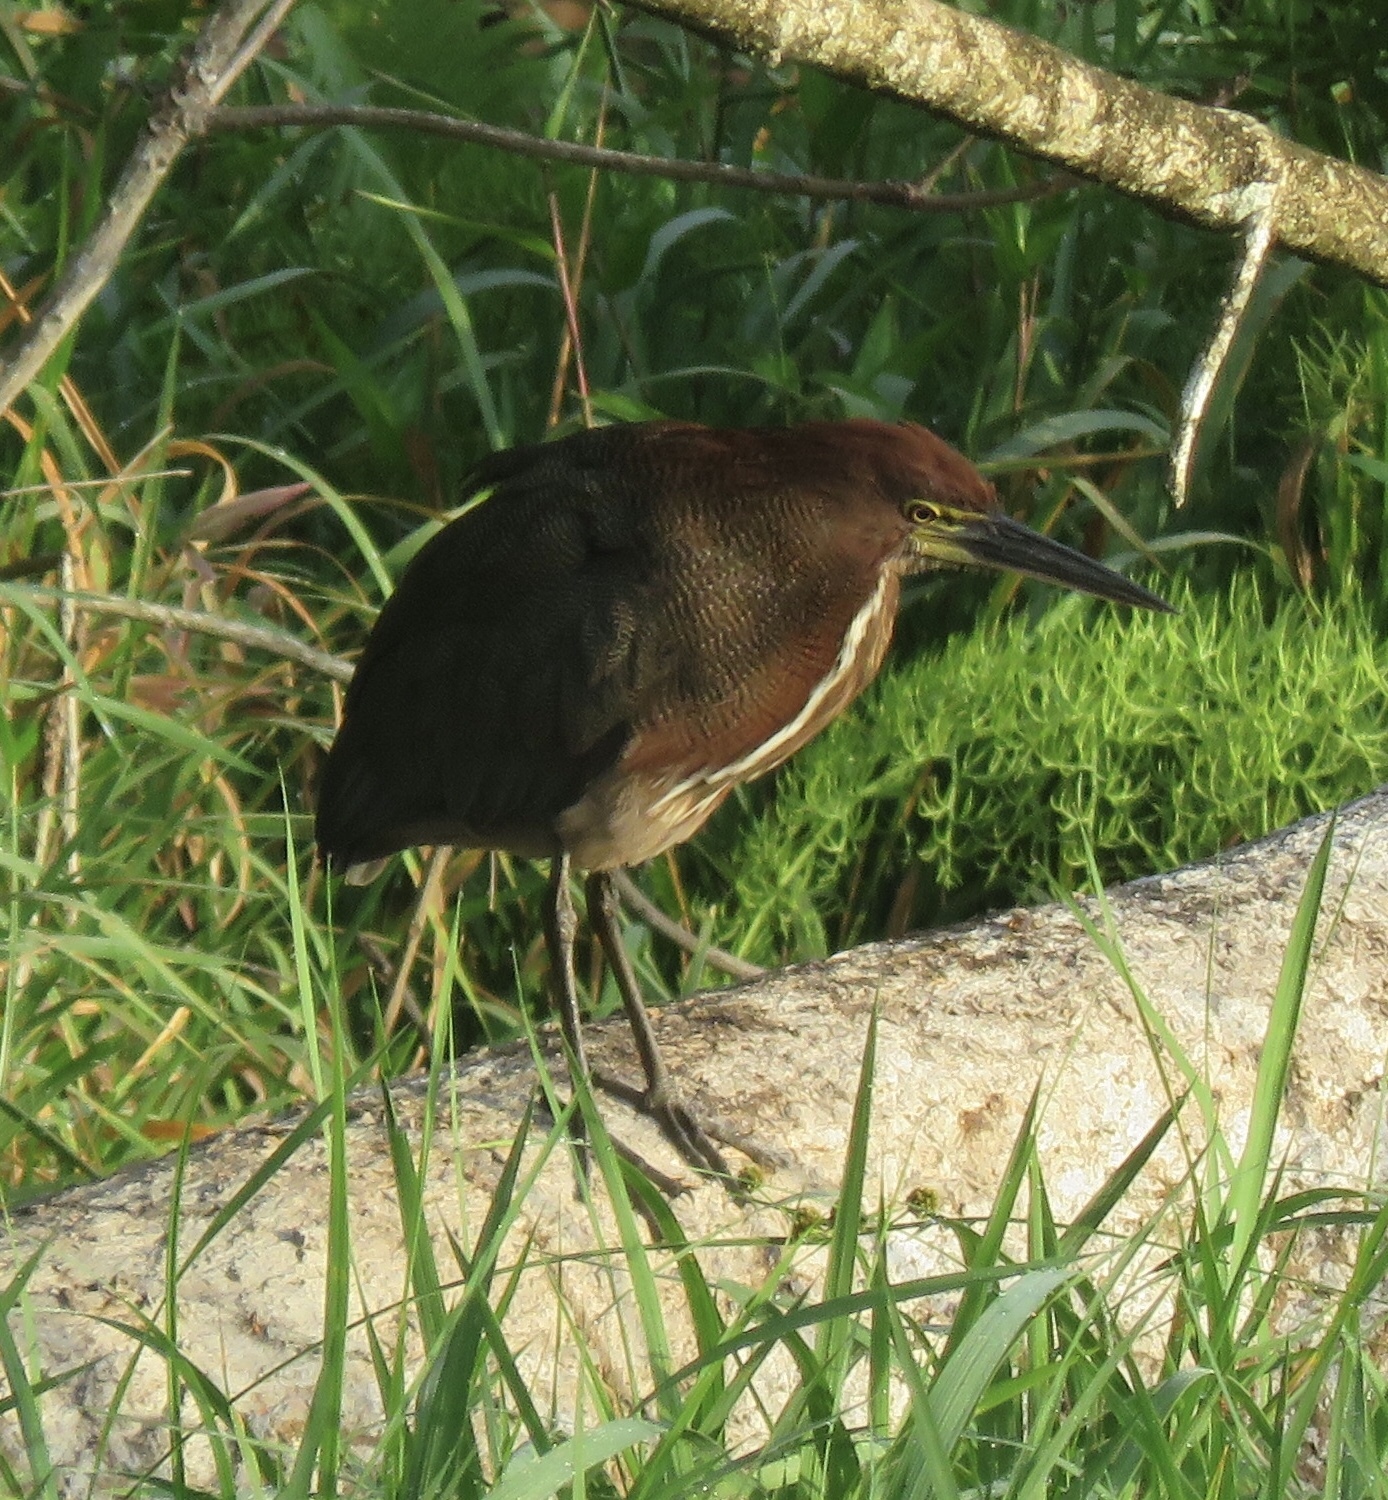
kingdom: Animalia
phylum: Chordata
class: Aves
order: Pelecaniformes
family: Ardeidae
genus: Tigrisoma
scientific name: Tigrisoma lineatum
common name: Rufescent tiger-heron
